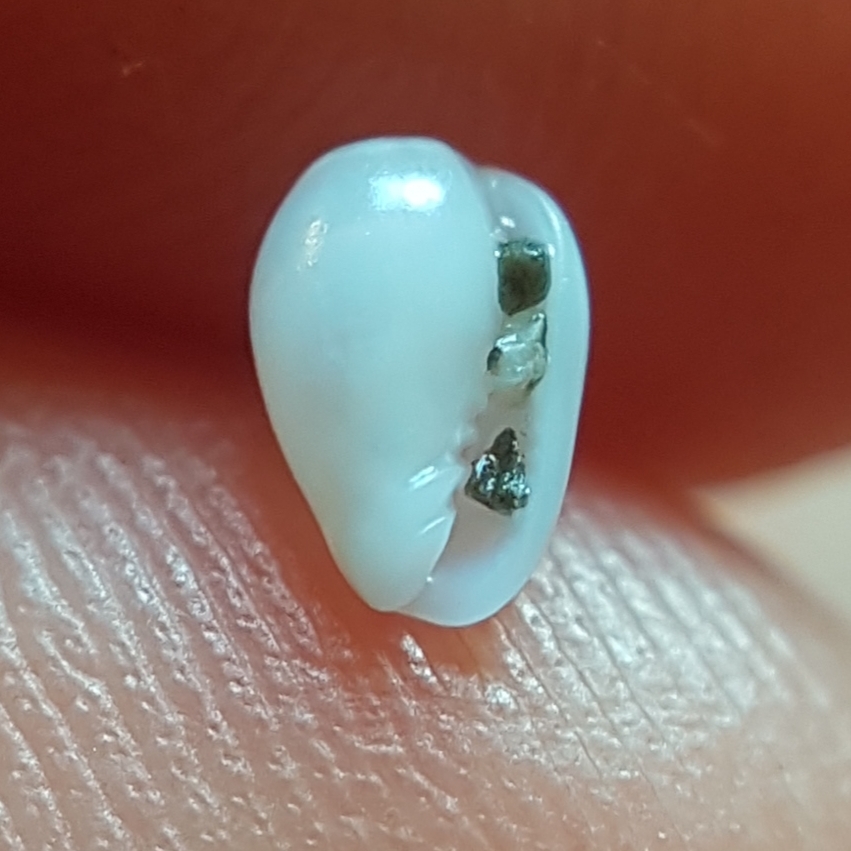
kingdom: Animalia
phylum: Mollusca
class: Gastropoda
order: Neogastropoda
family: Cystiscidae
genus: Gibberula
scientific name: Gibberula miliaria
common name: Millet topsnail
